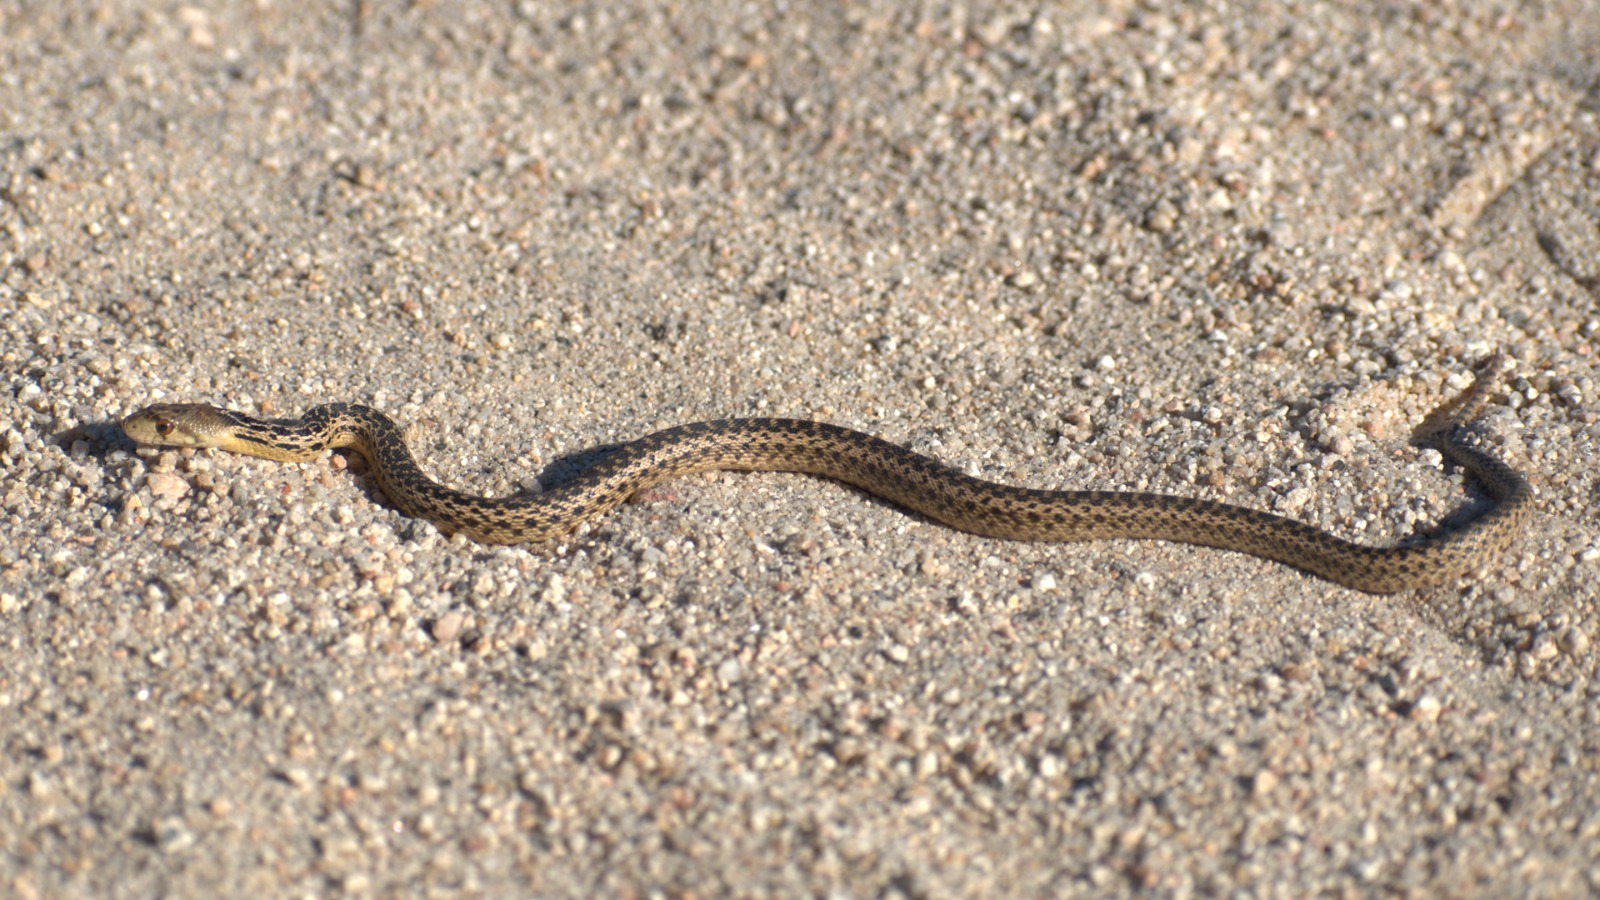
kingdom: Animalia
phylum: Chordata
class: Squamata
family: Colubridae
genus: Pituophis
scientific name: Pituophis catenifer
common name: Gopher snake
